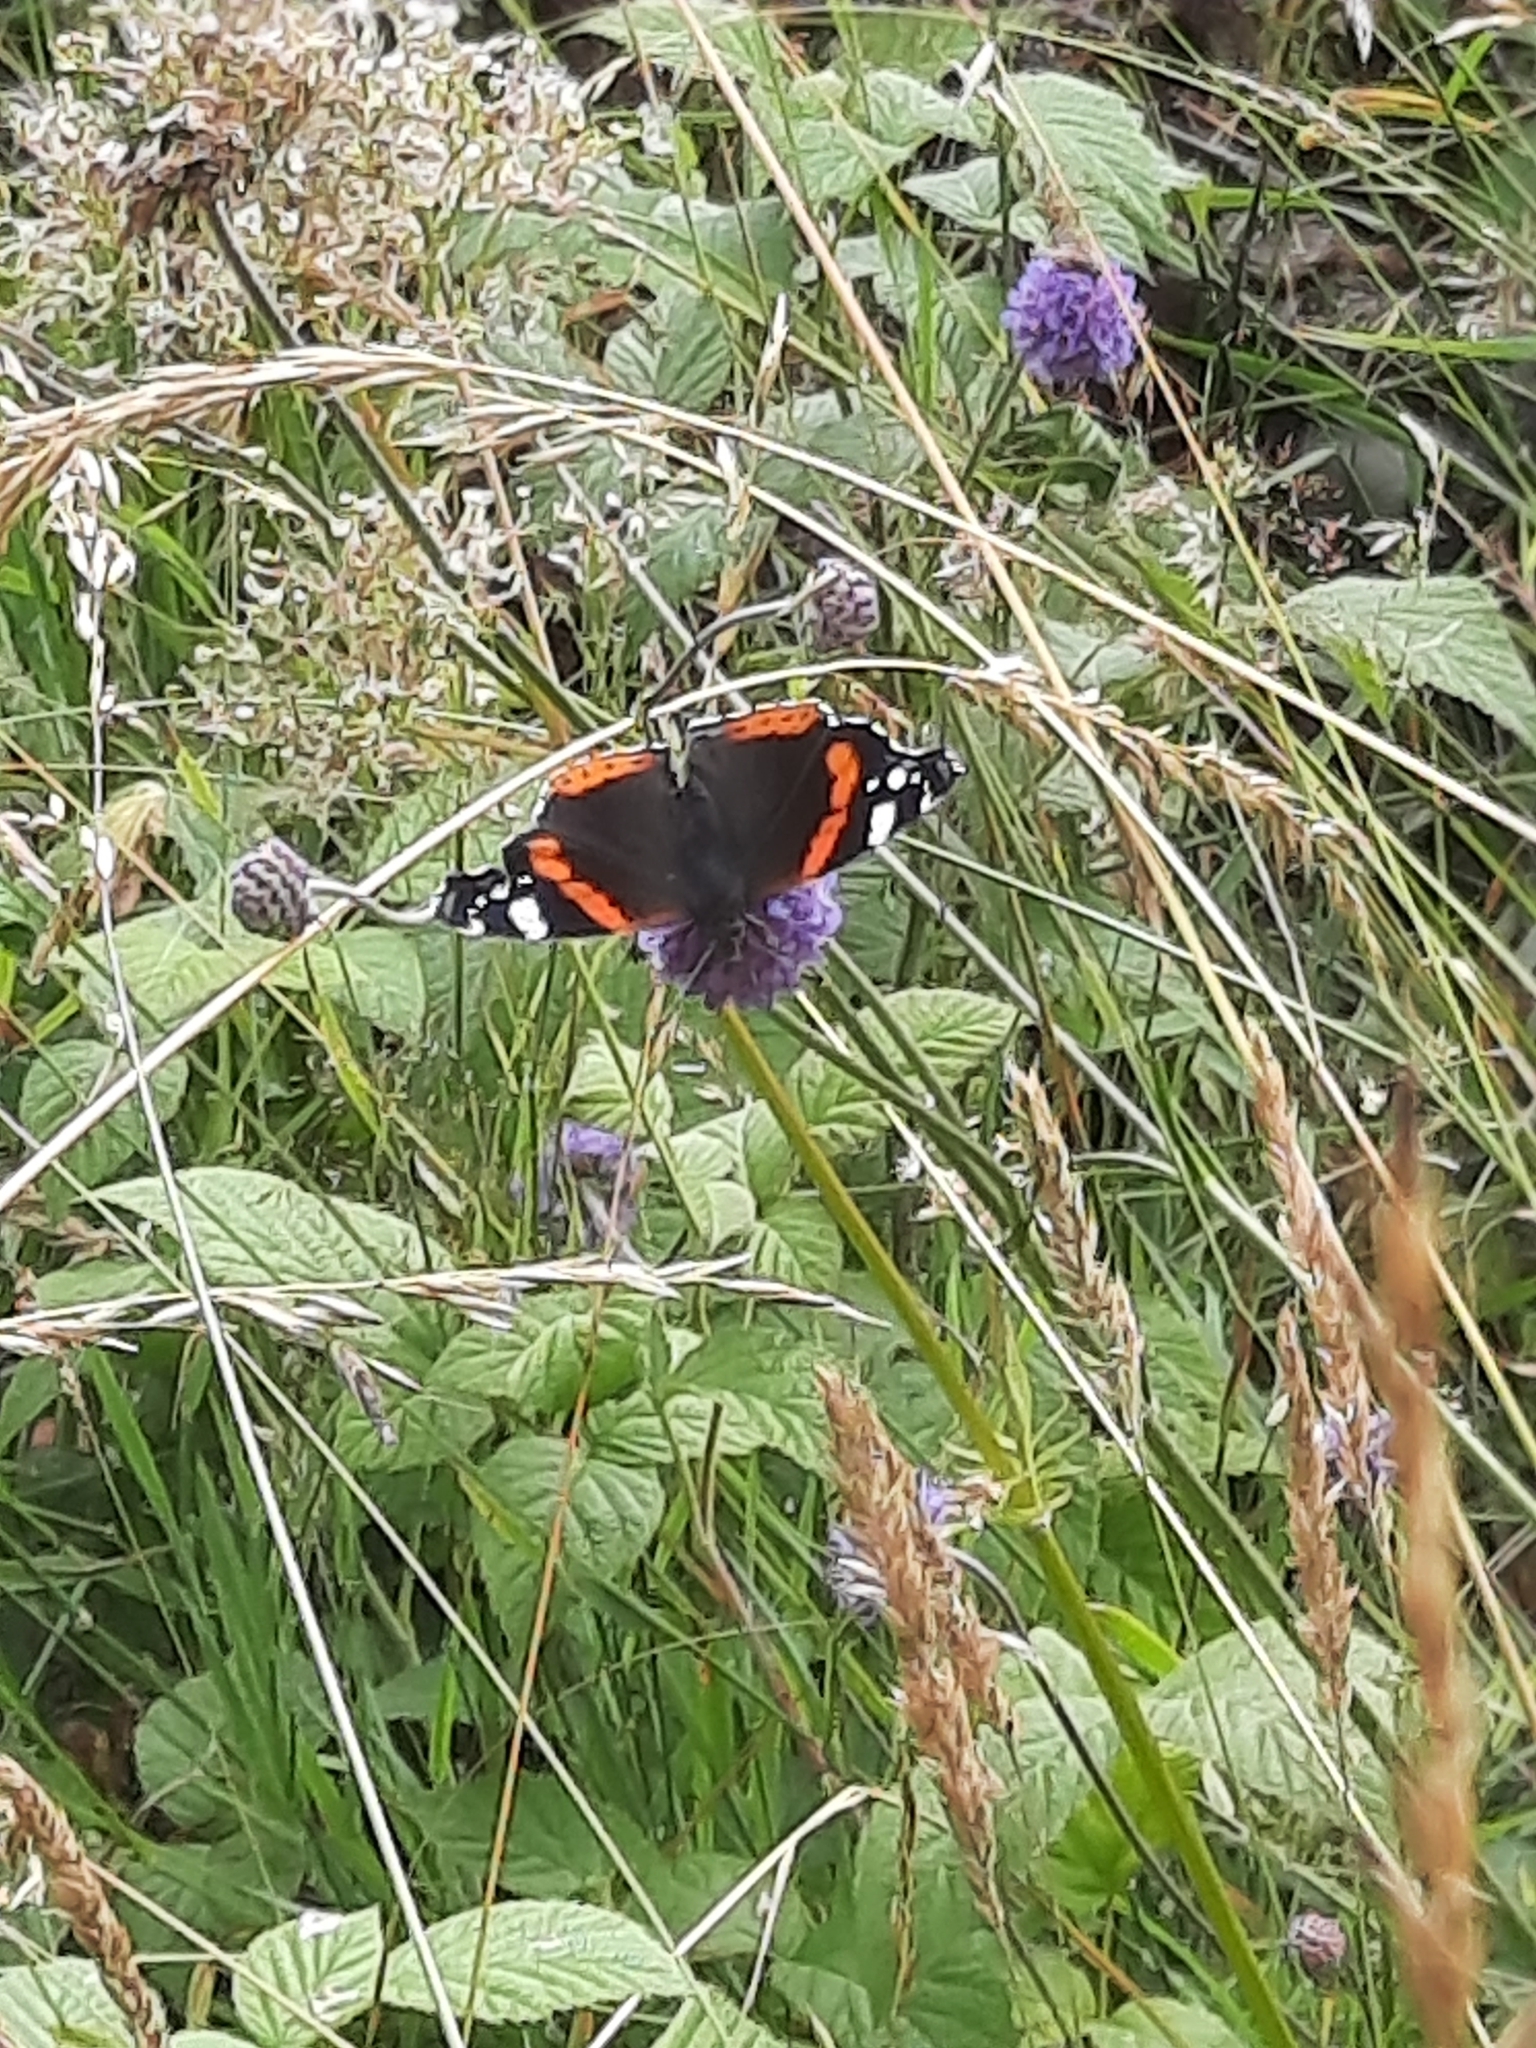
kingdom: Animalia
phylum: Arthropoda
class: Insecta
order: Lepidoptera
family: Nymphalidae
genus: Vanessa
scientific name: Vanessa atalanta
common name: Red admiral
